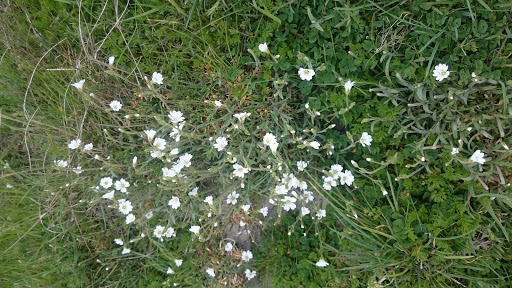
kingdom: Plantae
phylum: Tracheophyta
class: Magnoliopsida
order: Caryophyllales
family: Caryophyllaceae
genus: Cerastium
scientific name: Cerastium arvense
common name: Field mouse-ear
